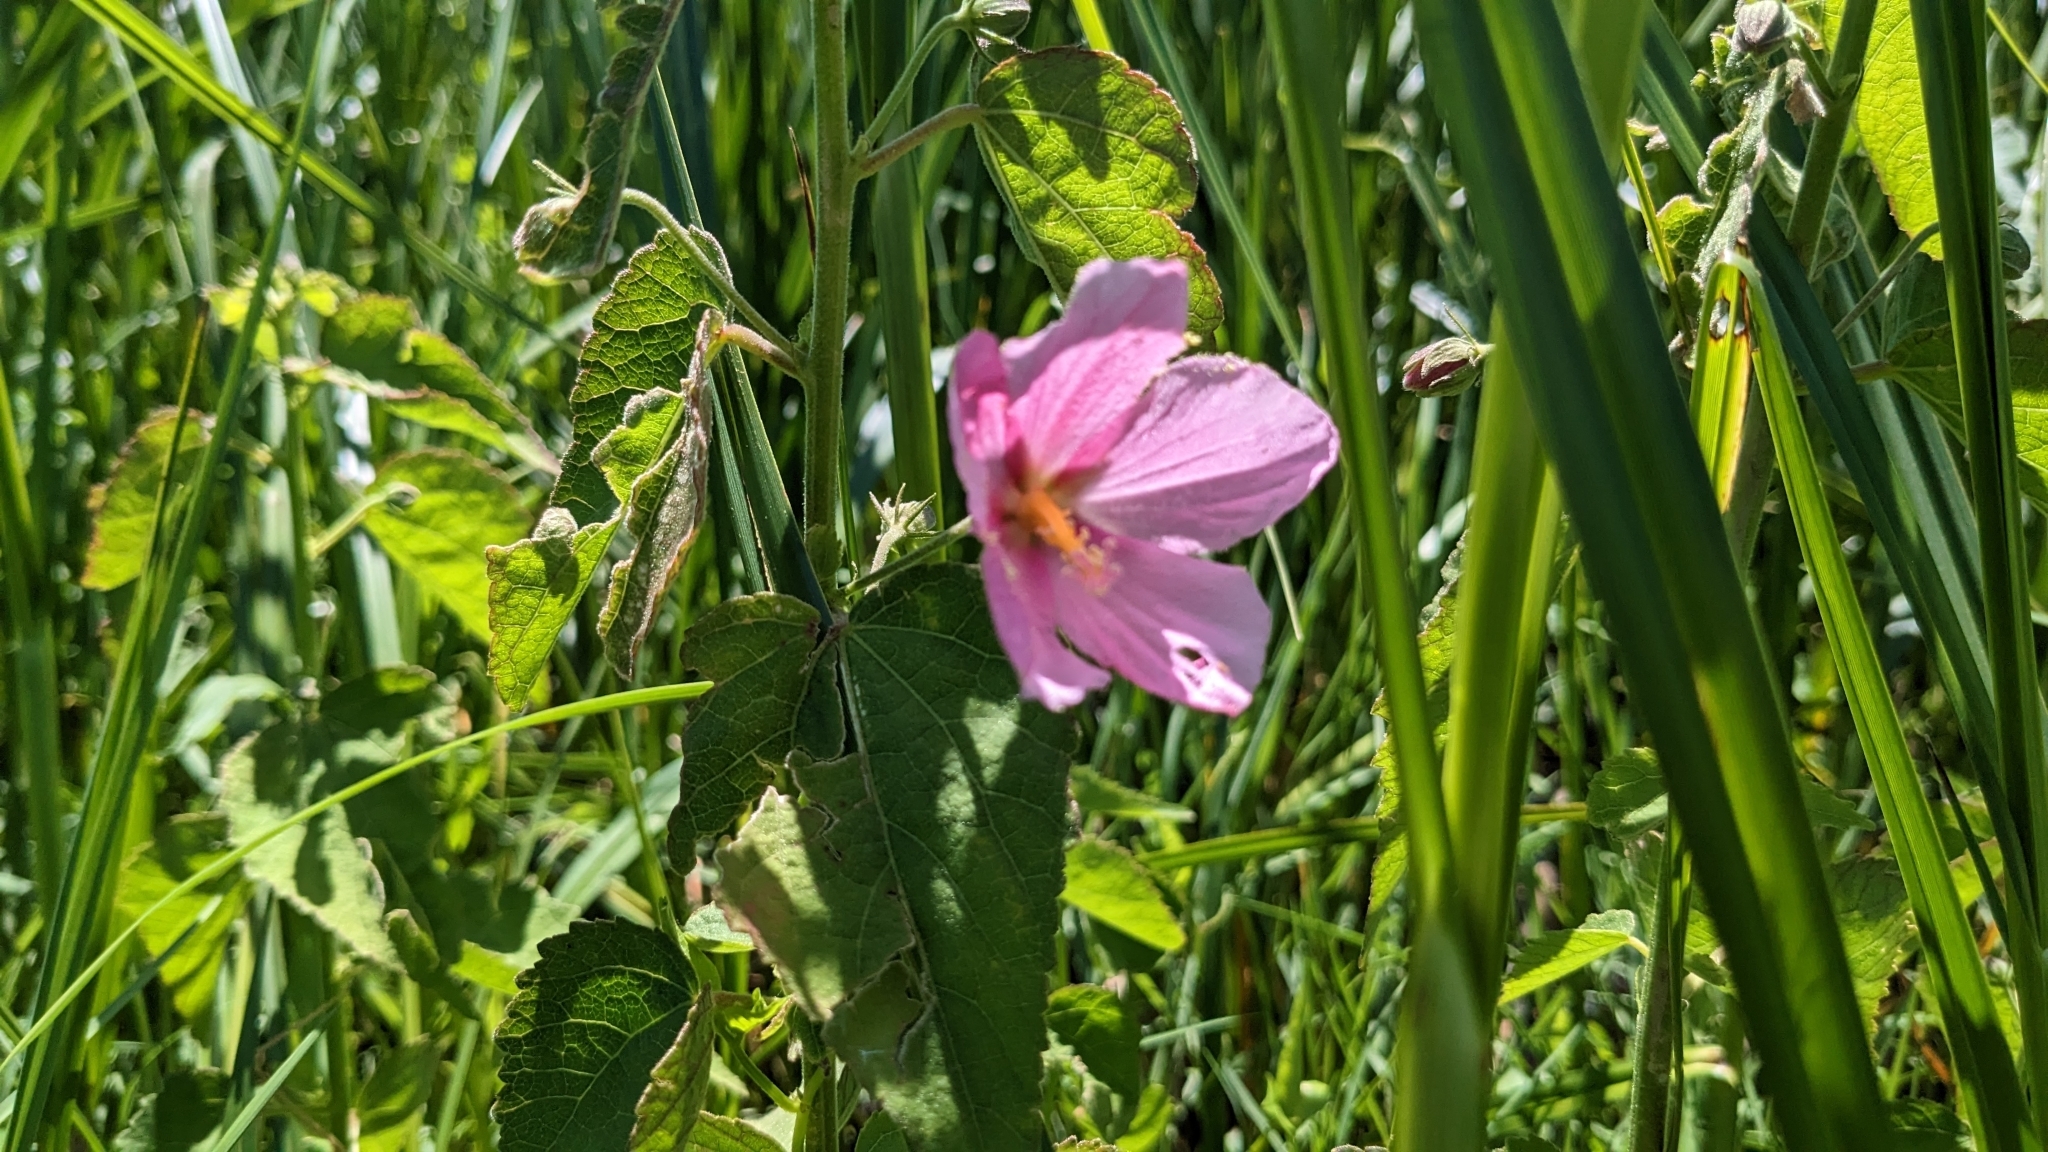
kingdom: Plantae
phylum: Tracheophyta
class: Magnoliopsida
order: Malvales
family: Malvaceae
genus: Kosteletzkya
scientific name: Kosteletzkya pentacarpos
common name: Virginia saltmarsh mallow
